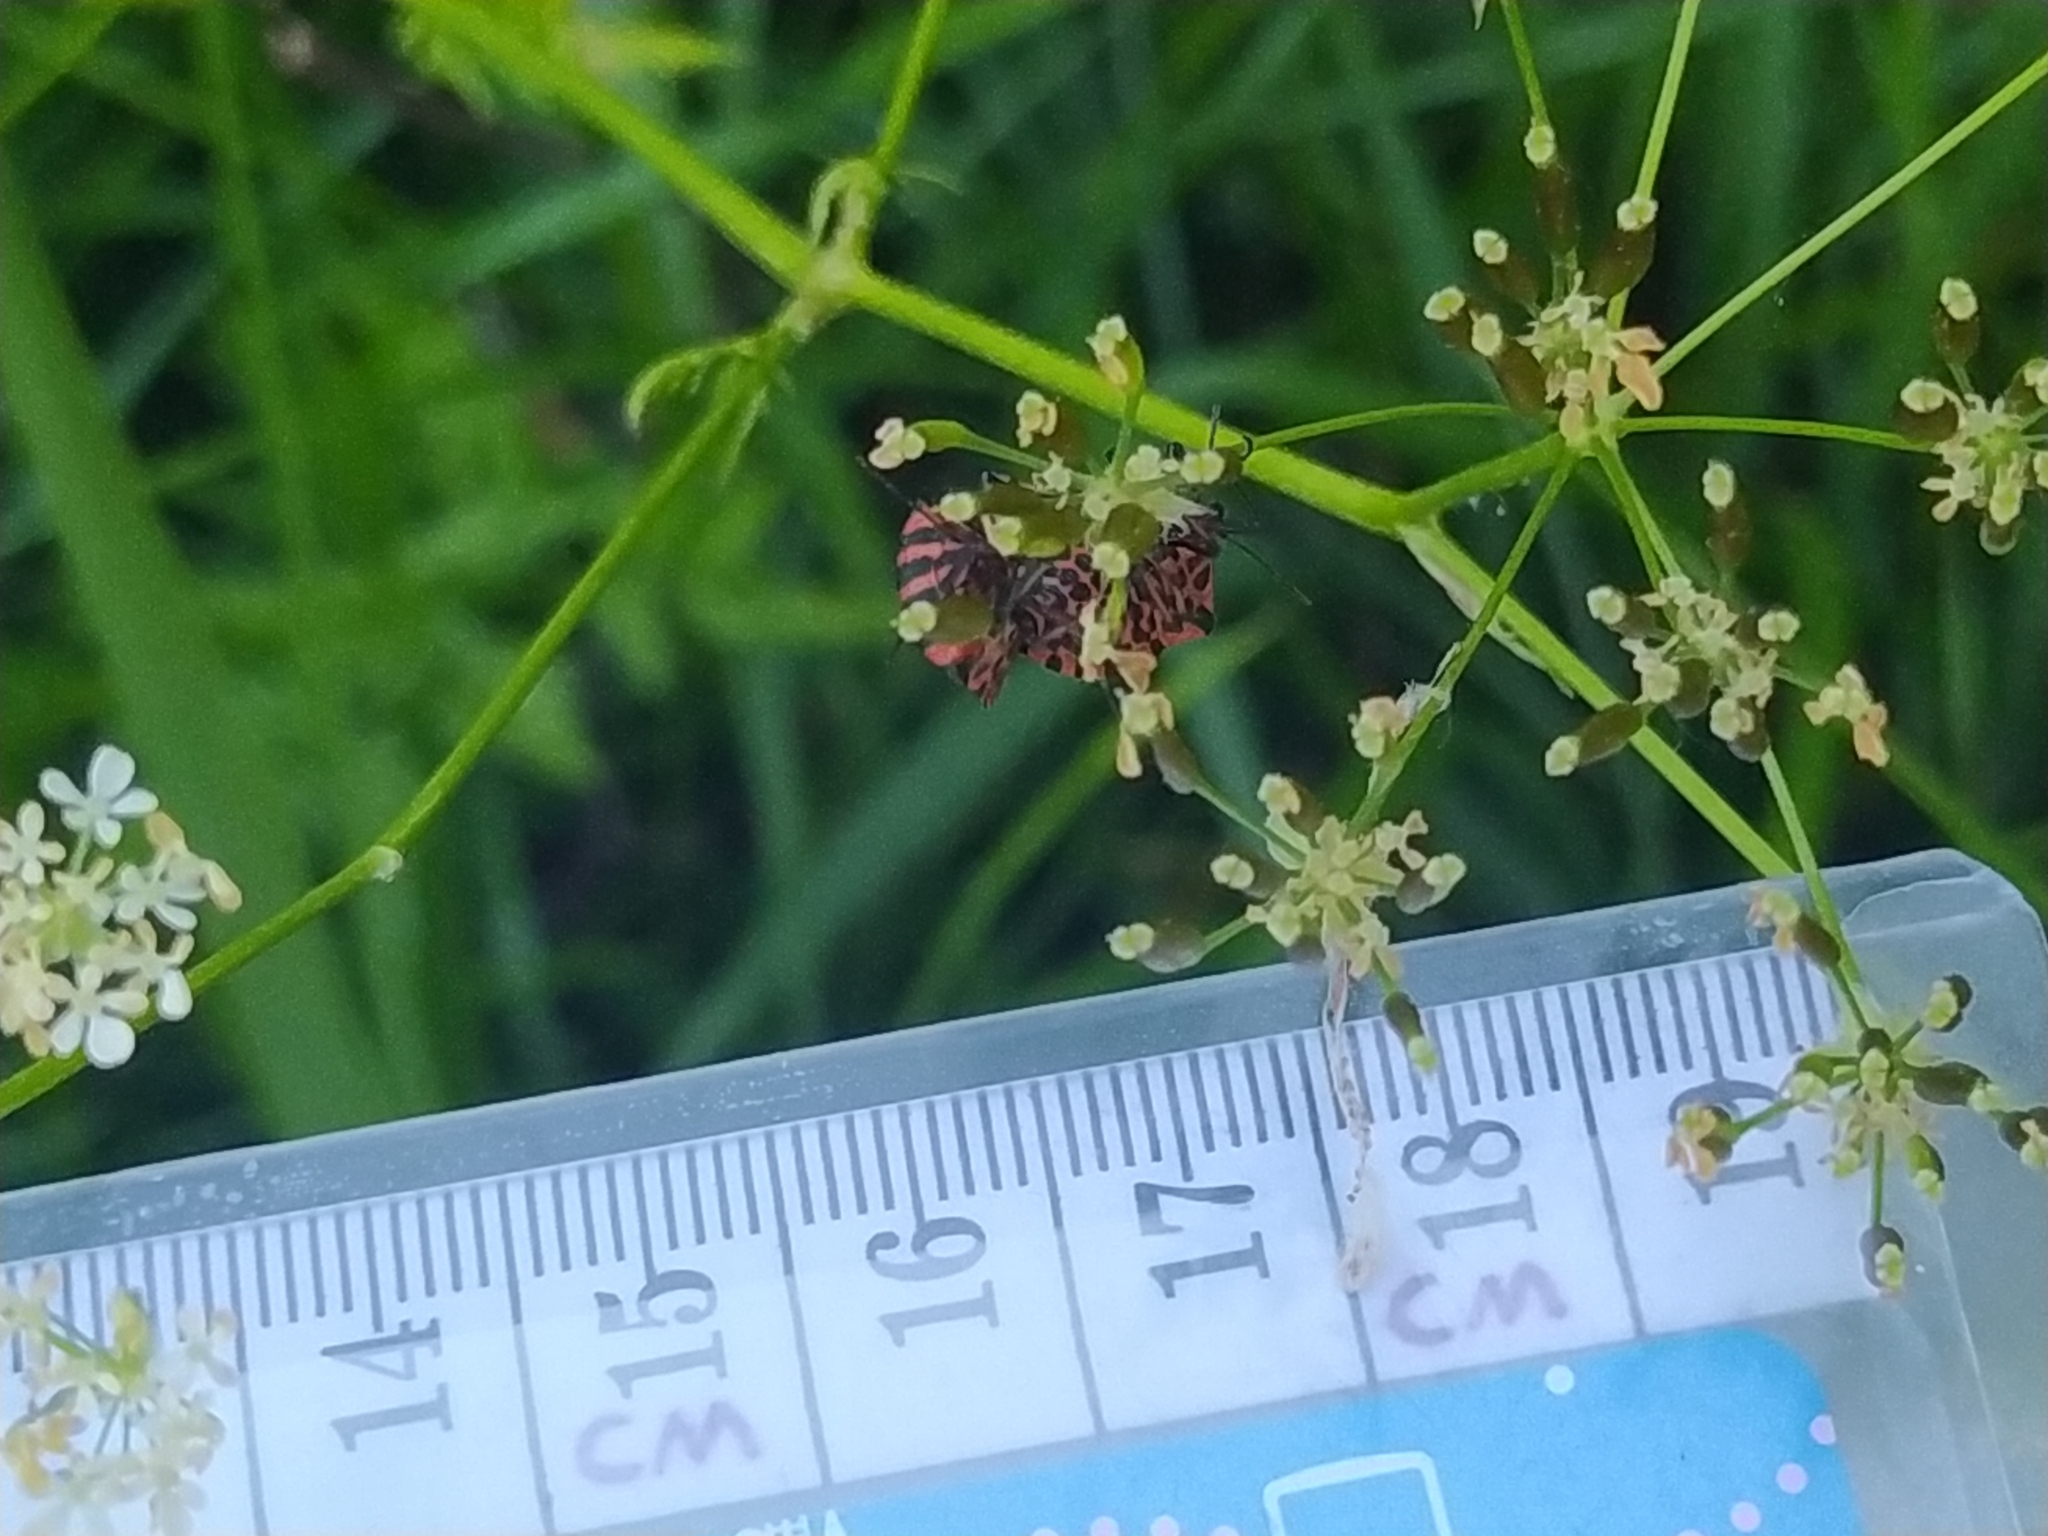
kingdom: Animalia
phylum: Arthropoda
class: Insecta
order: Hemiptera
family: Pentatomidae
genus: Graphosoma
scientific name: Graphosoma italicum
